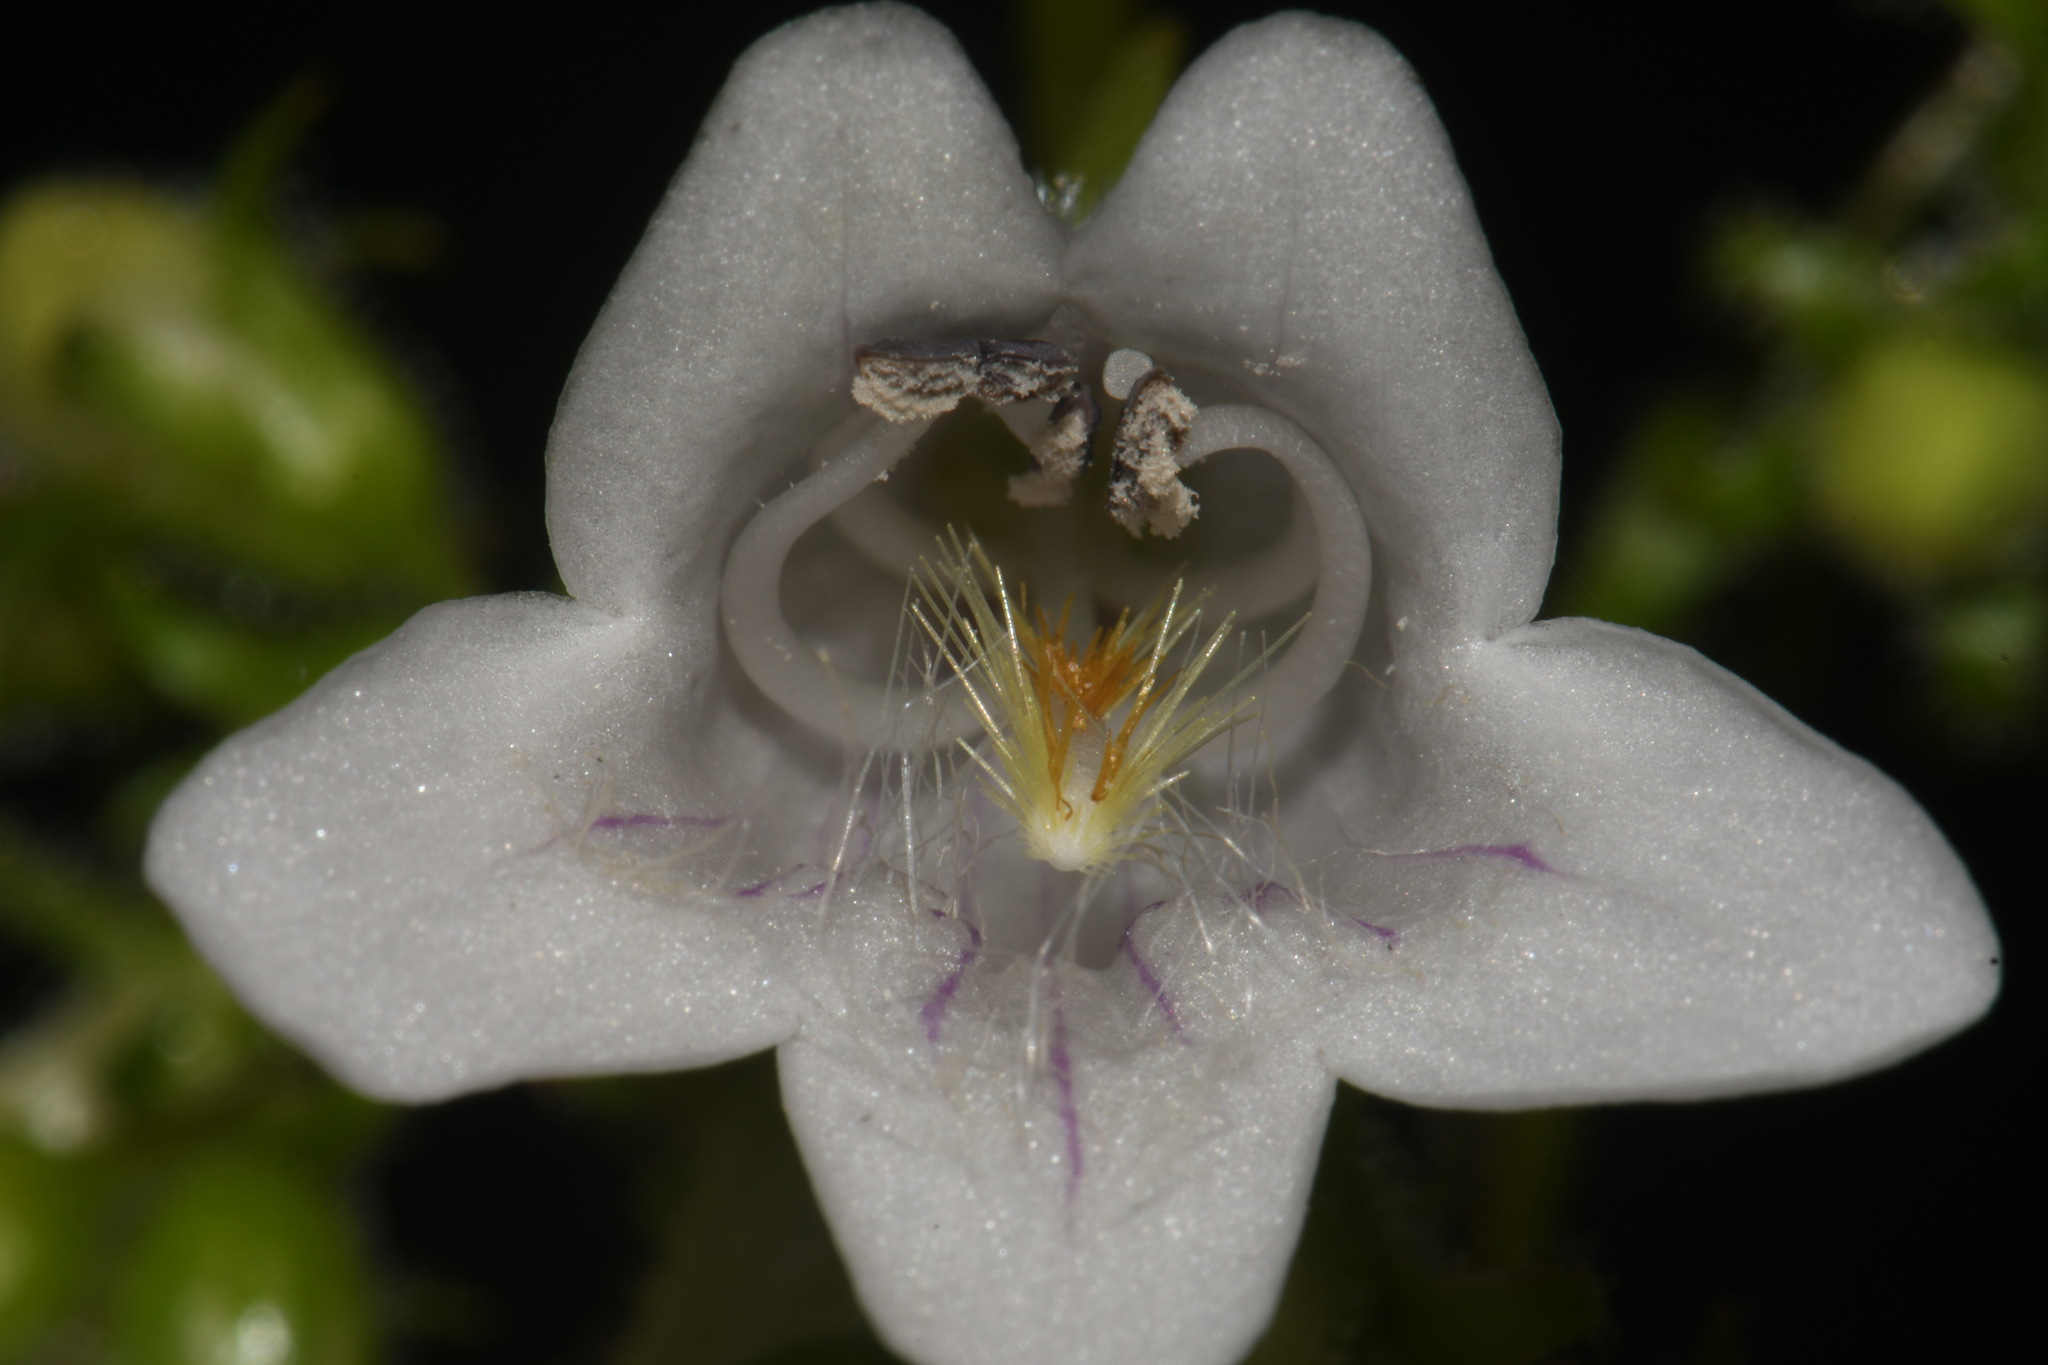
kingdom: Plantae
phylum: Tracheophyta
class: Magnoliopsida
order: Lamiales
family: Plantaginaceae
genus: Penstemon
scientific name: Penstemon digitalis
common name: Foxglove beardtongue
